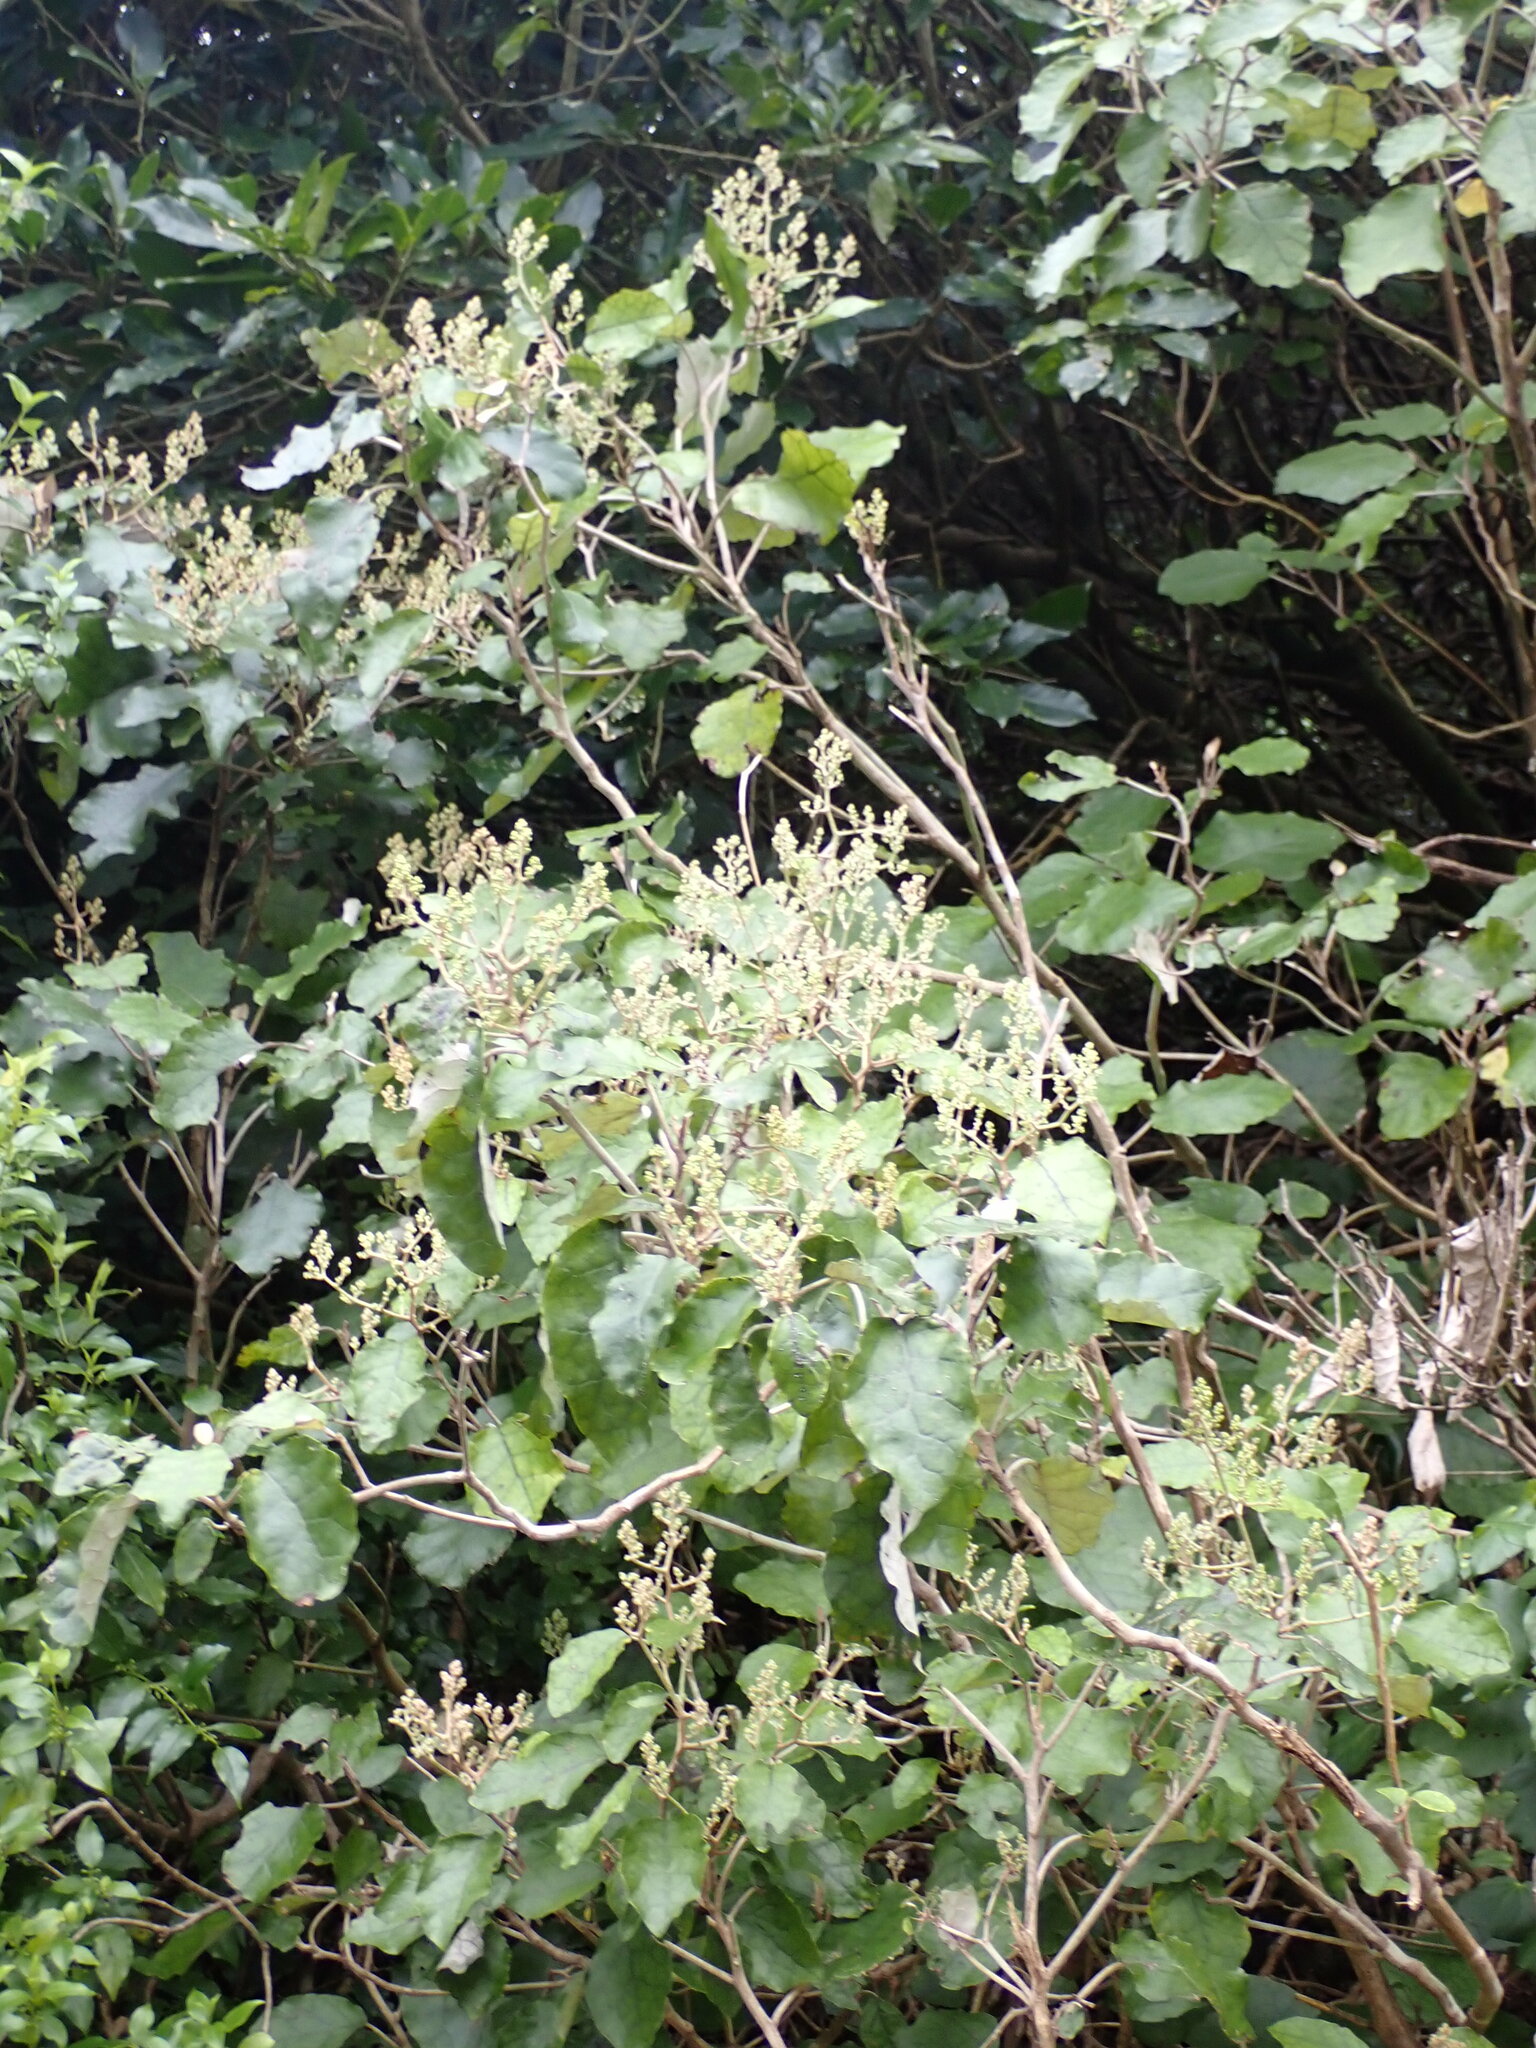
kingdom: Plantae
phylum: Tracheophyta
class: Magnoliopsida
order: Asterales
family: Asteraceae
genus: Brachyglottis
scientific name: Brachyglottis repanda
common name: Hedge ragwort
